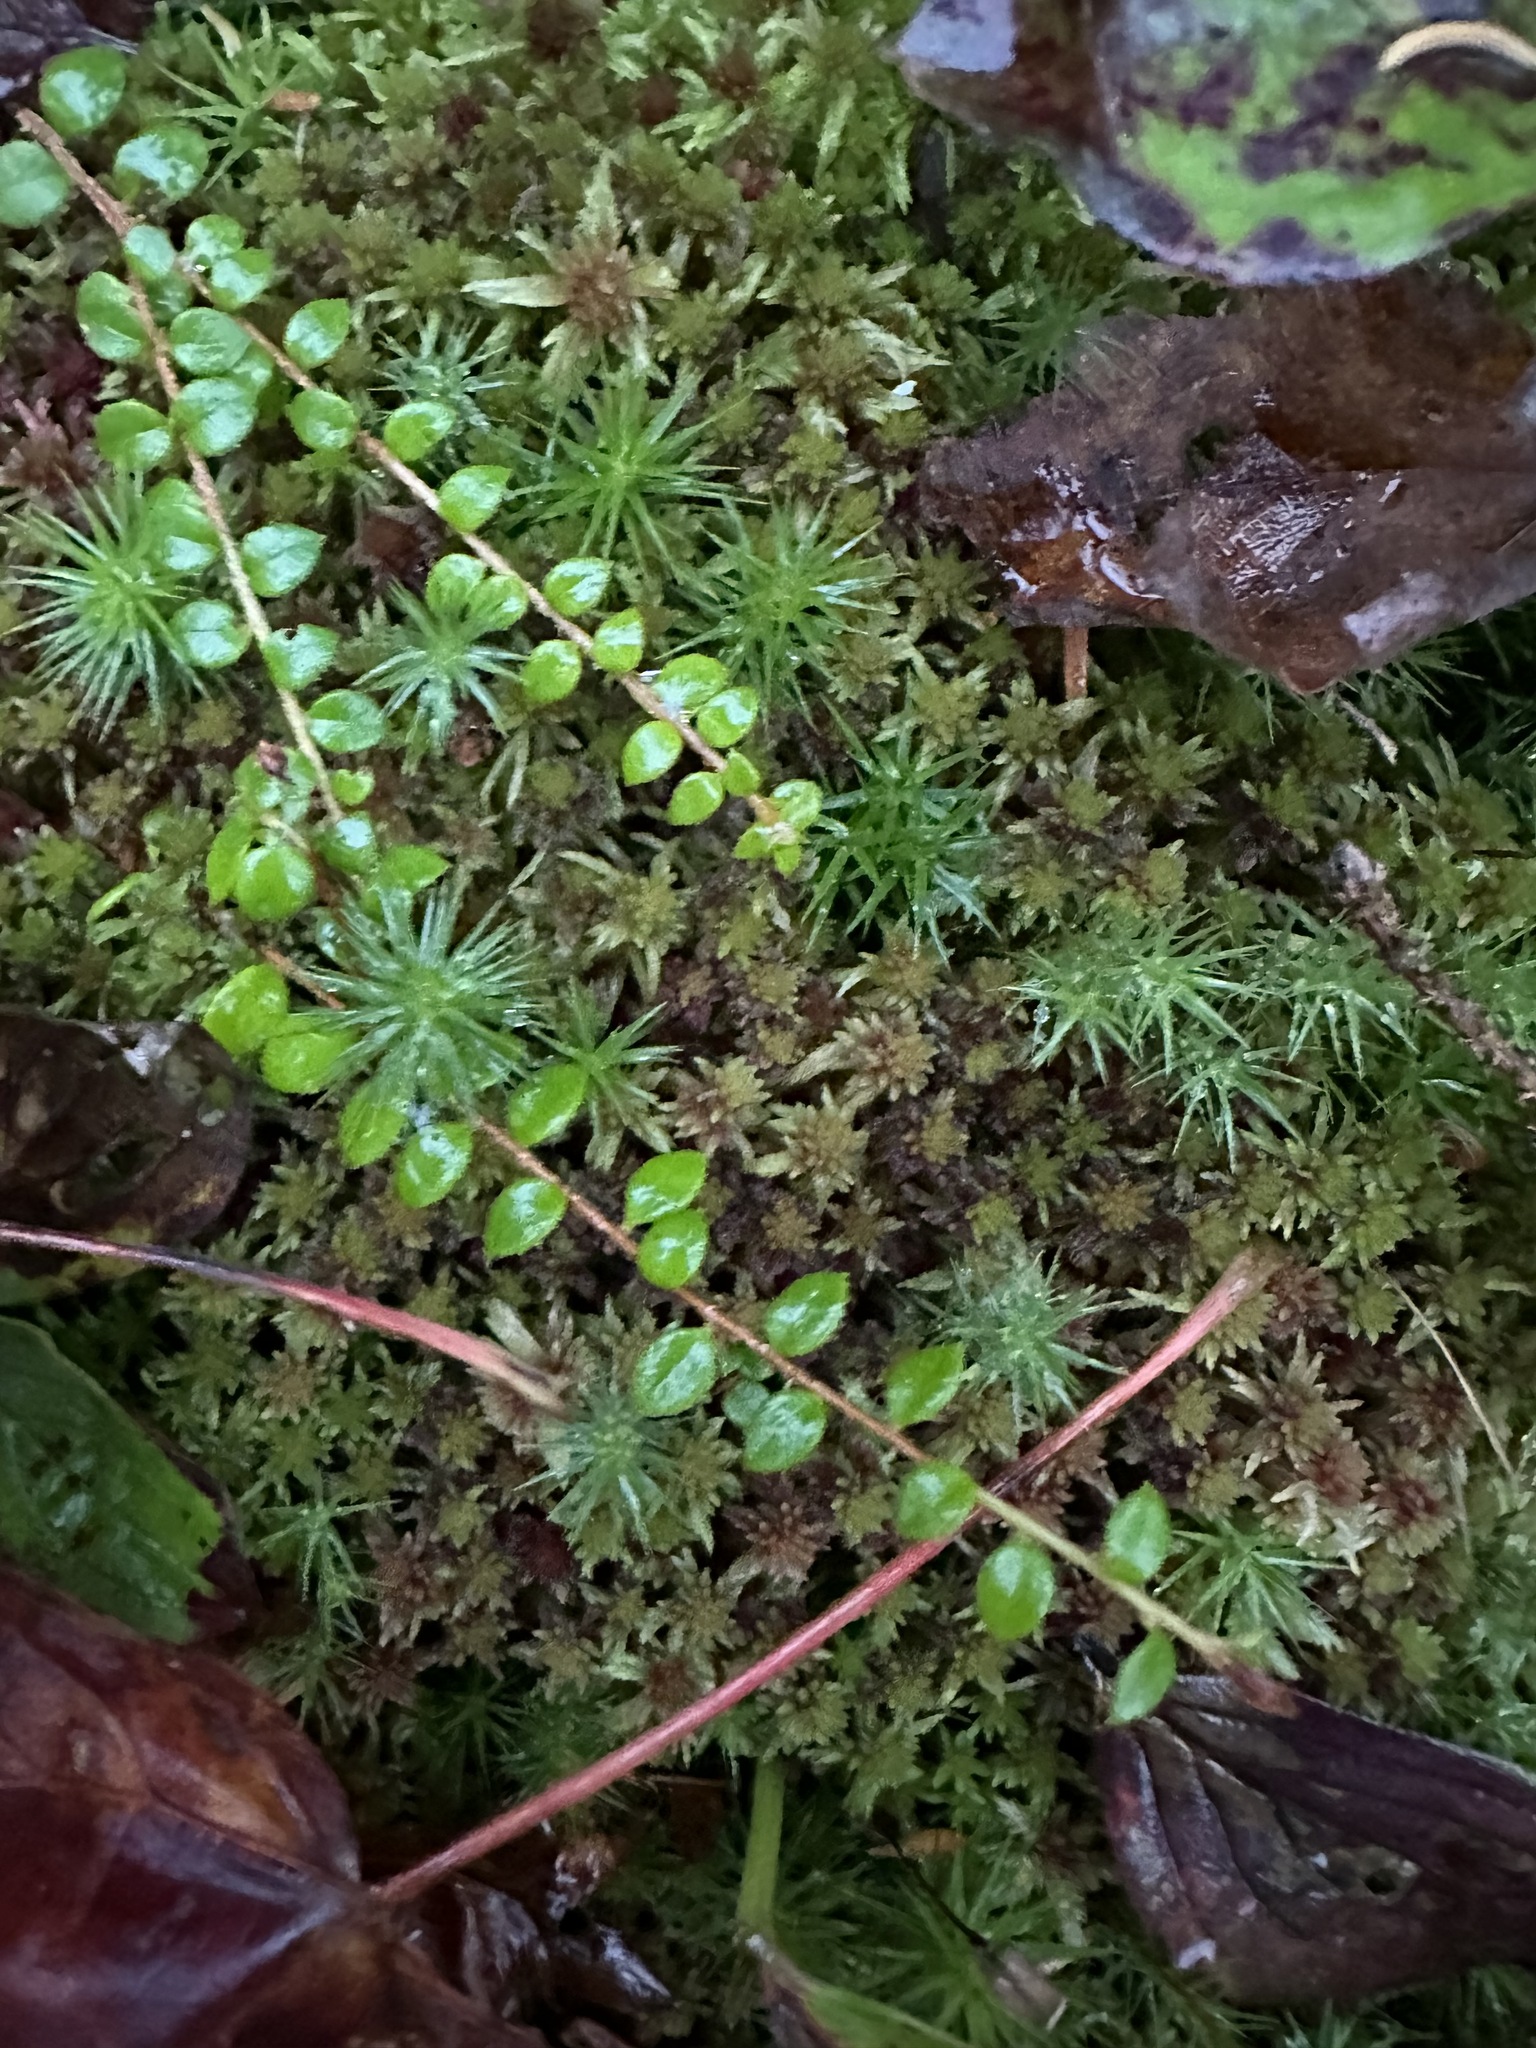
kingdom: Plantae
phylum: Tracheophyta
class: Magnoliopsida
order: Ericales
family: Ericaceae
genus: Gaultheria
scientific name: Gaultheria hispidula
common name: Cancer wintergreen
